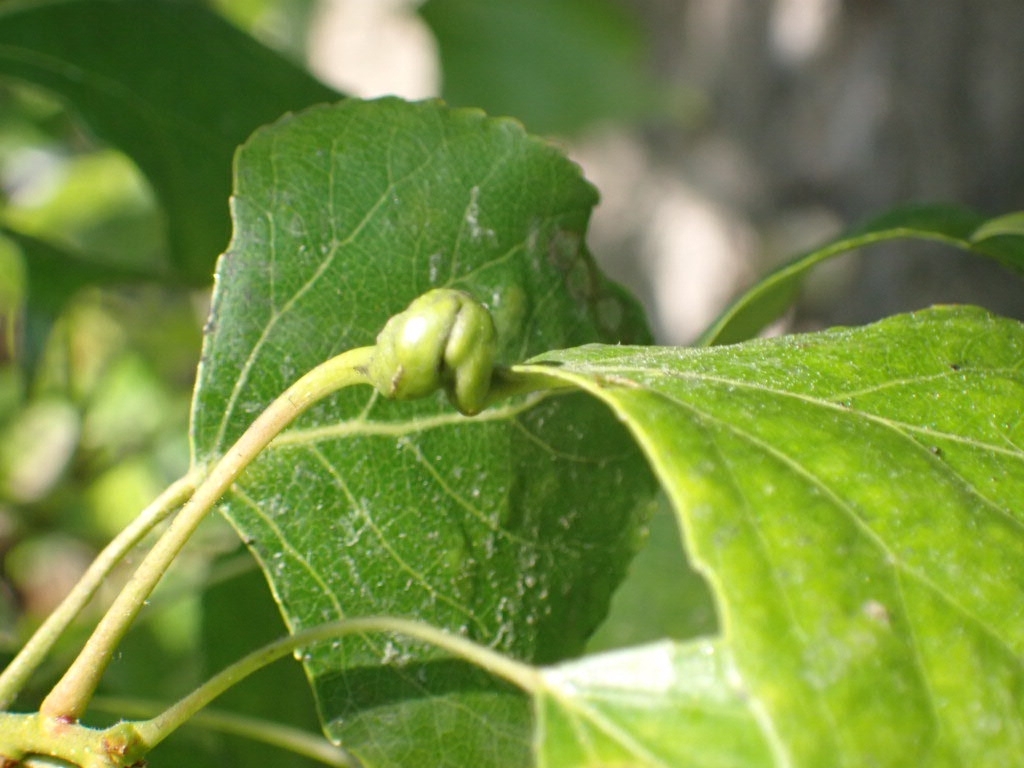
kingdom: Animalia
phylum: Arthropoda
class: Insecta
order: Hemiptera
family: Aphididae
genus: Pemphigus
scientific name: Pemphigus spyrothecae
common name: Aphid
